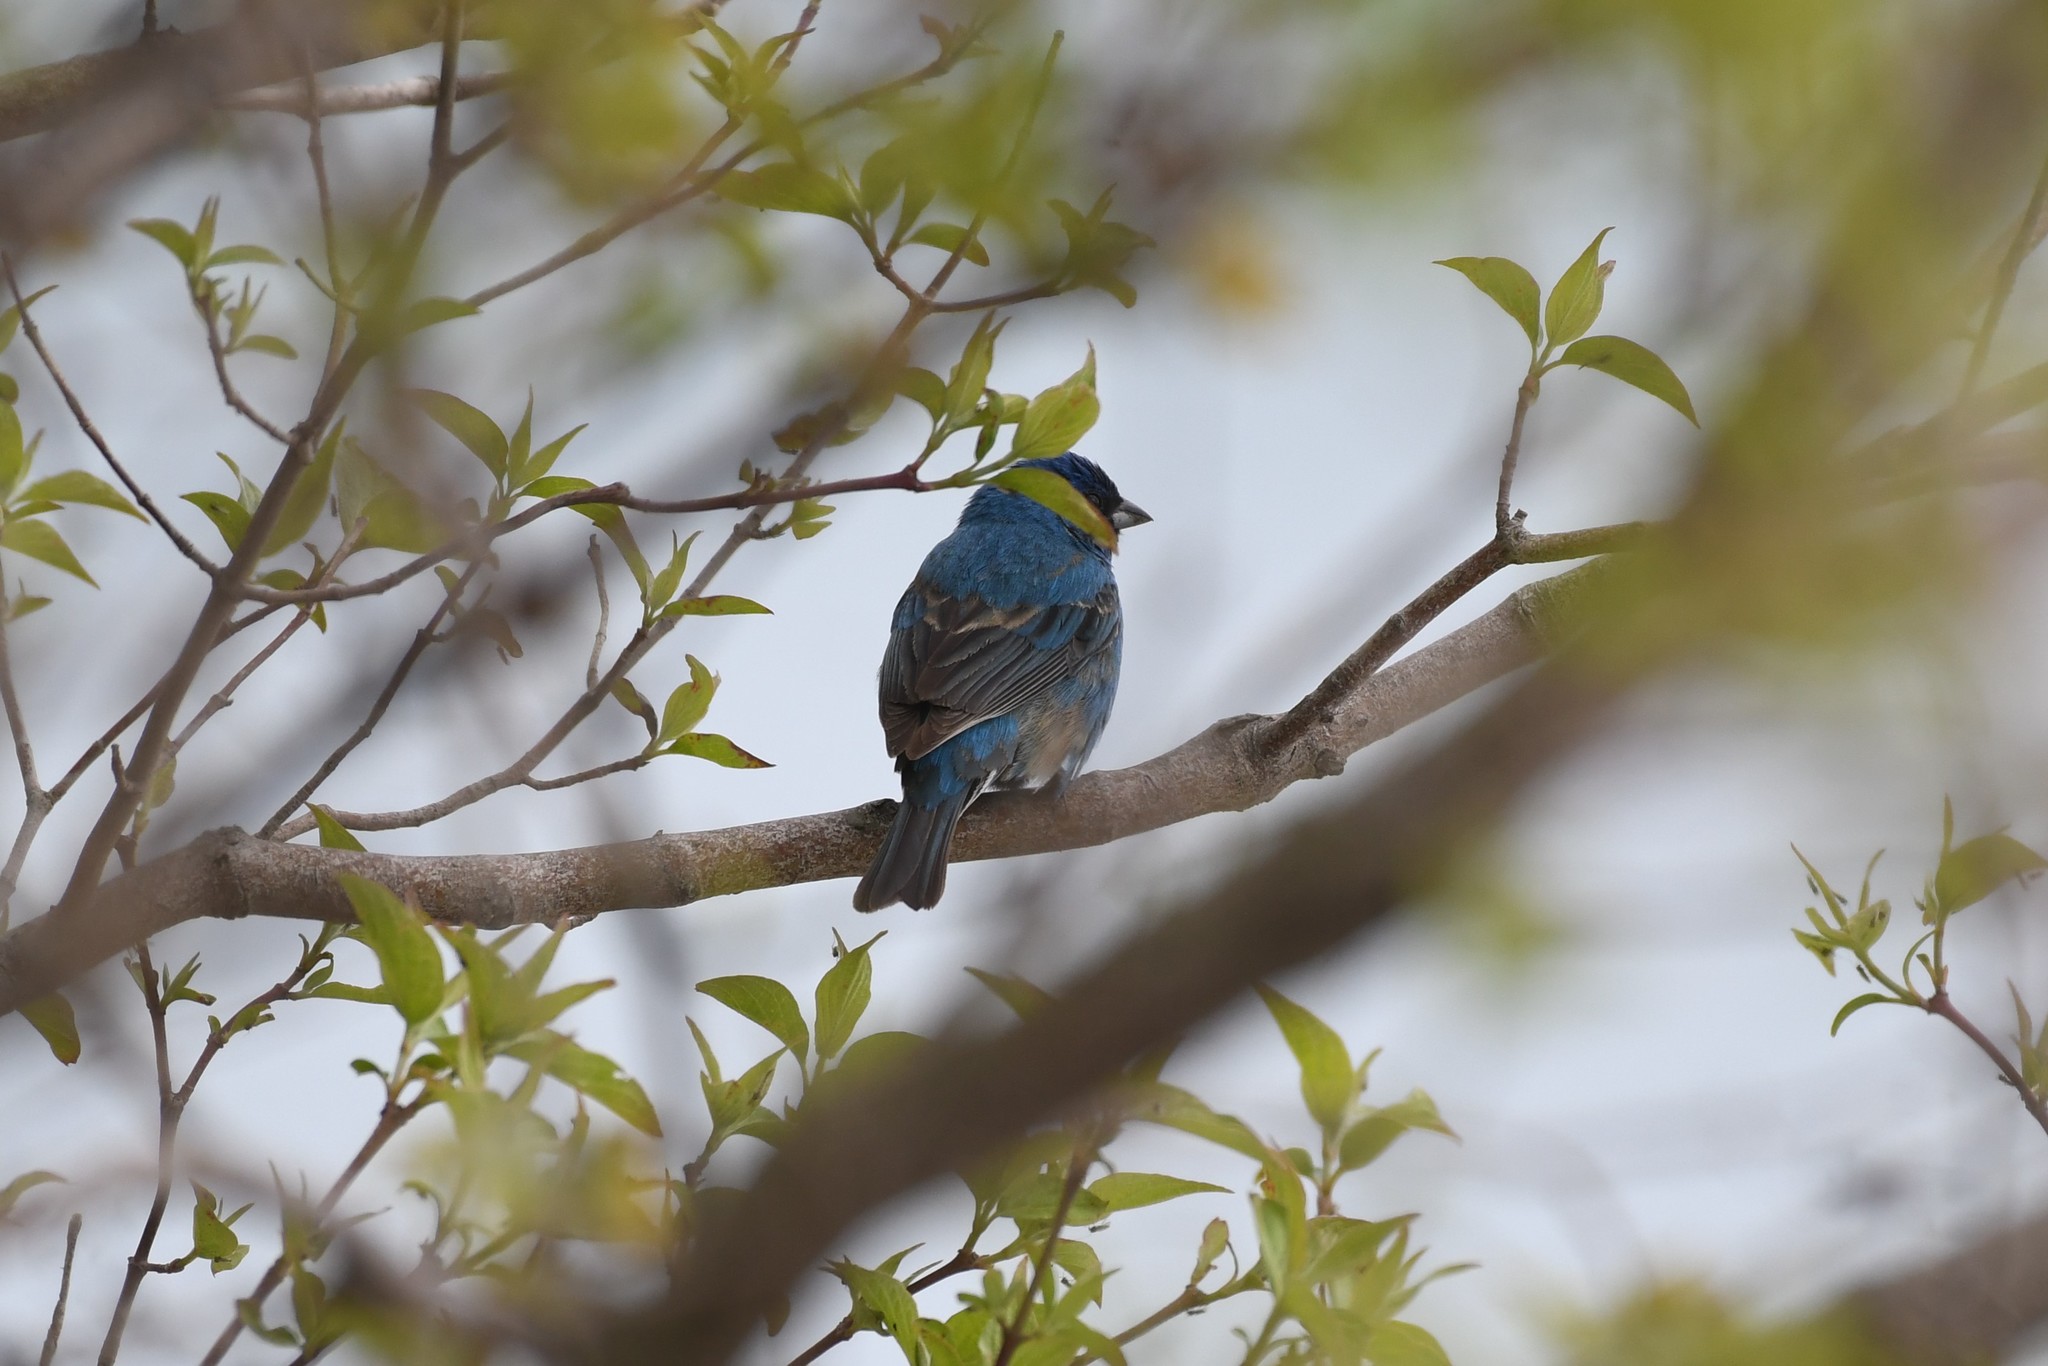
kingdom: Animalia
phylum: Chordata
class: Aves
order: Passeriformes
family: Cardinalidae
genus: Passerina
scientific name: Passerina cyanea
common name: Indigo bunting
